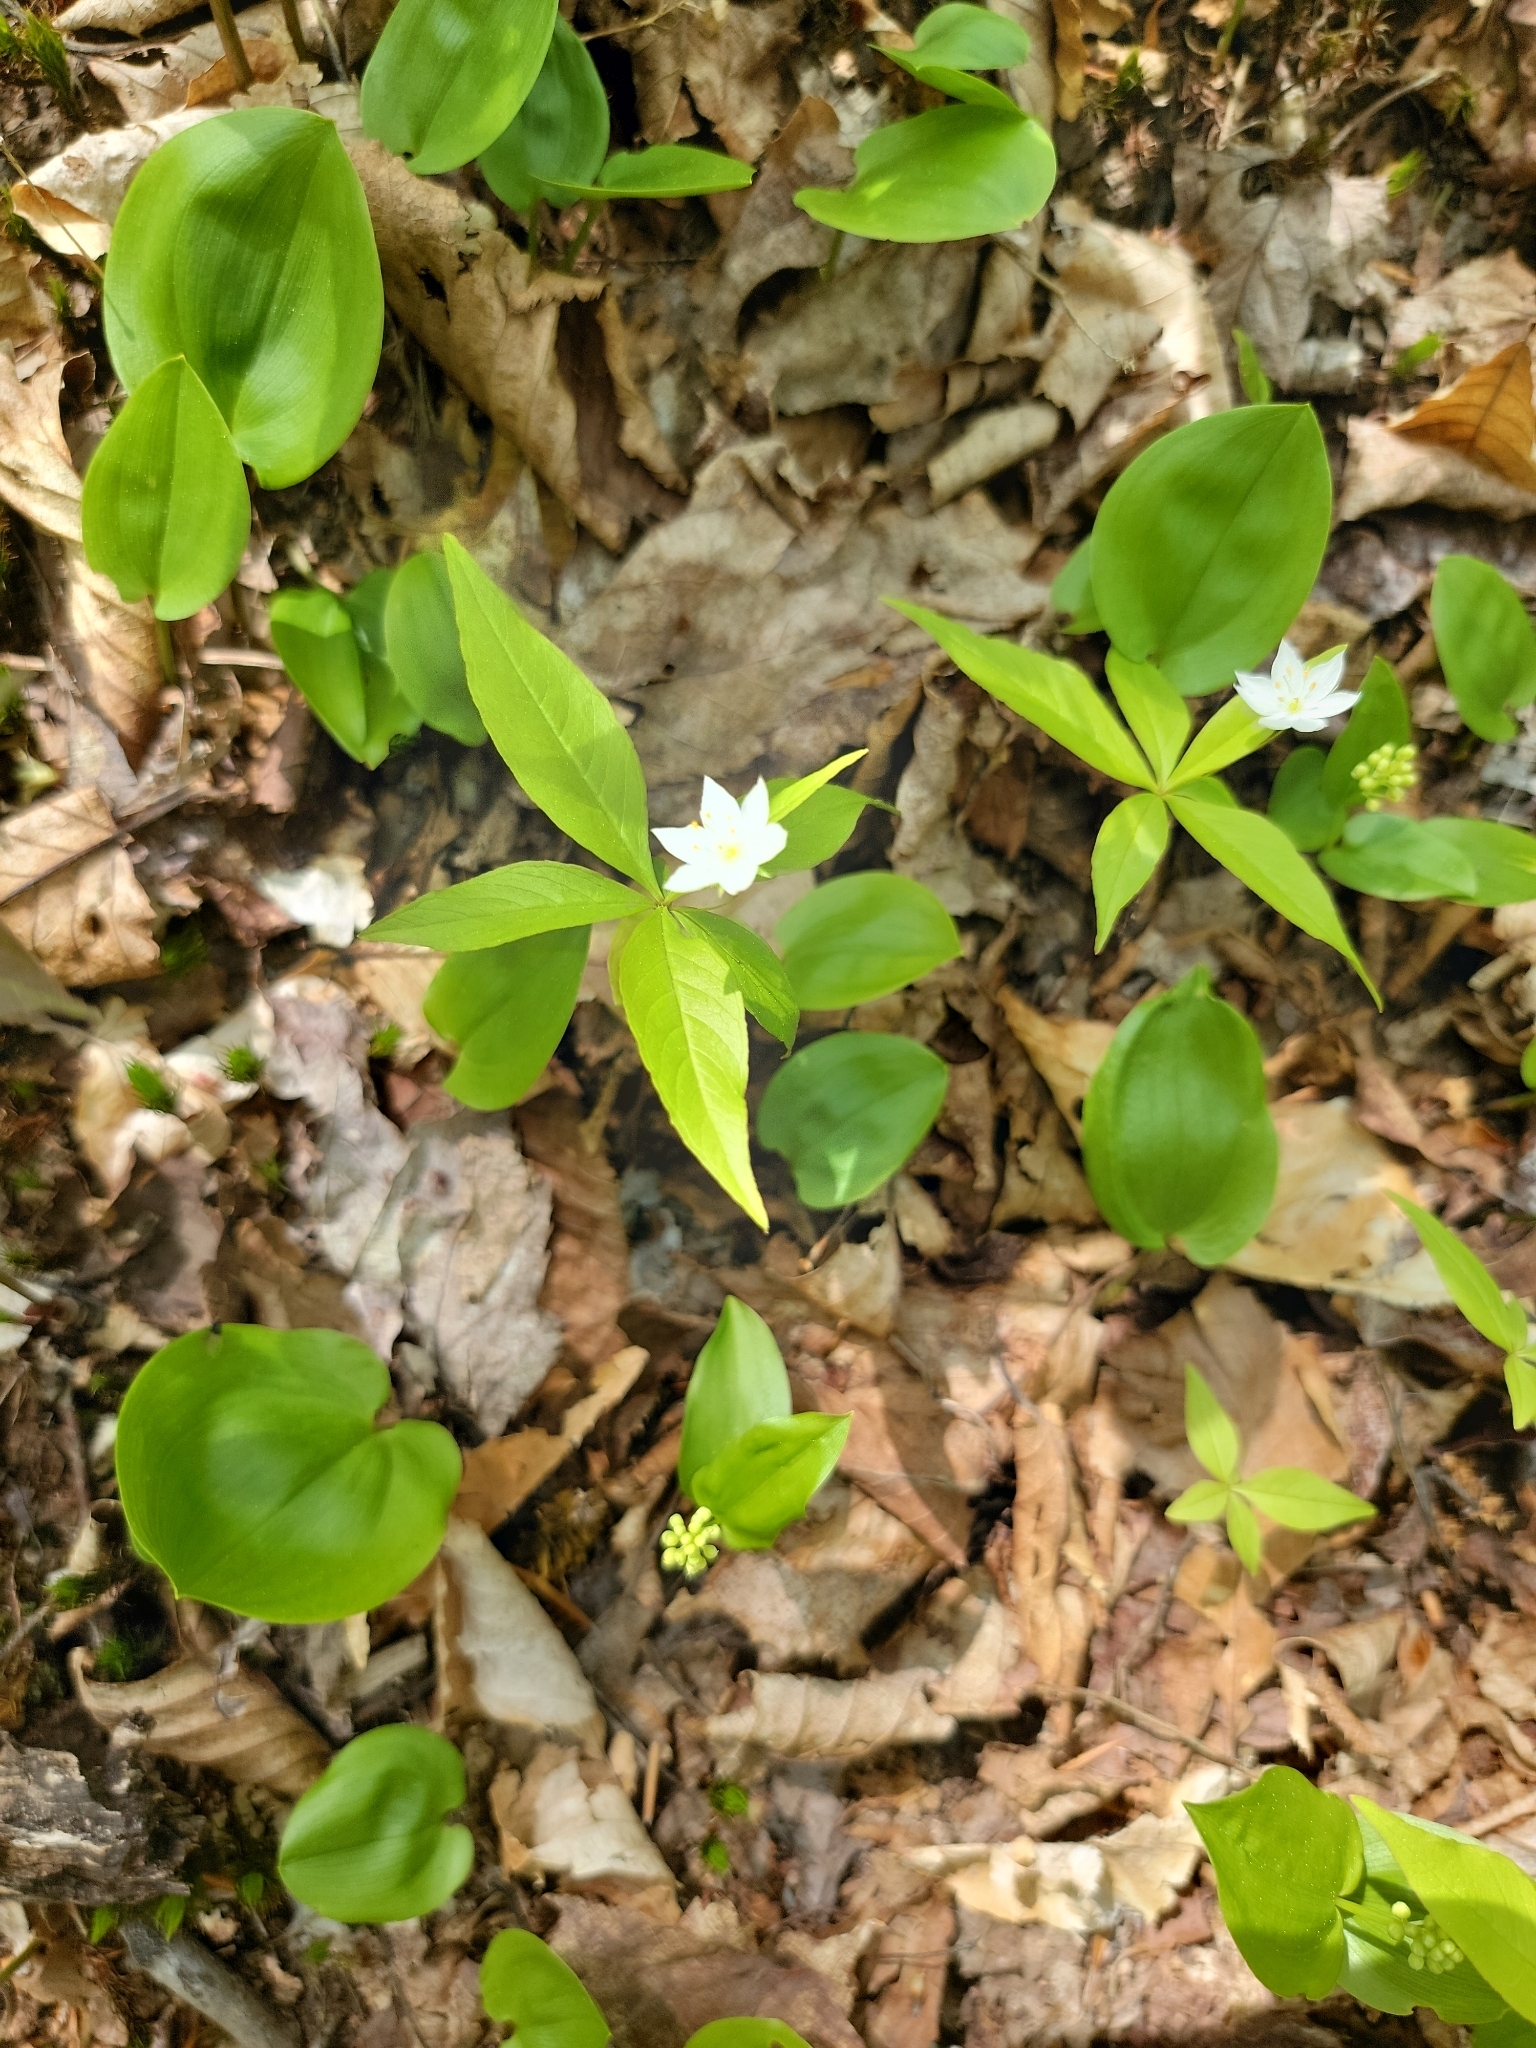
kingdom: Plantae
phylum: Tracheophyta
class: Magnoliopsida
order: Ericales
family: Primulaceae
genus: Lysimachia
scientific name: Lysimachia borealis
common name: American starflower
